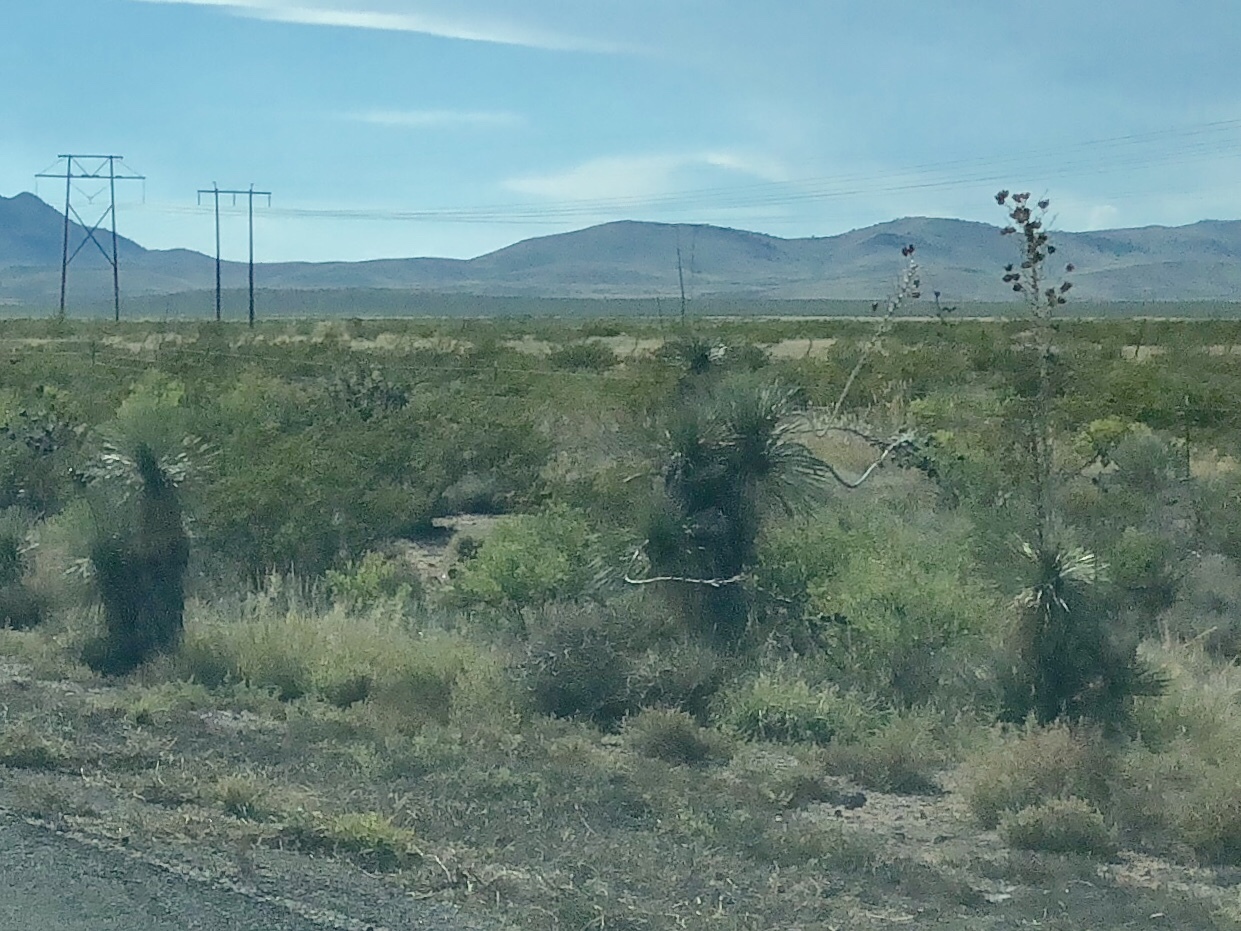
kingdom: Plantae
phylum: Tracheophyta
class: Liliopsida
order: Asparagales
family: Asparagaceae
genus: Yucca
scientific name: Yucca elata
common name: Palmella
